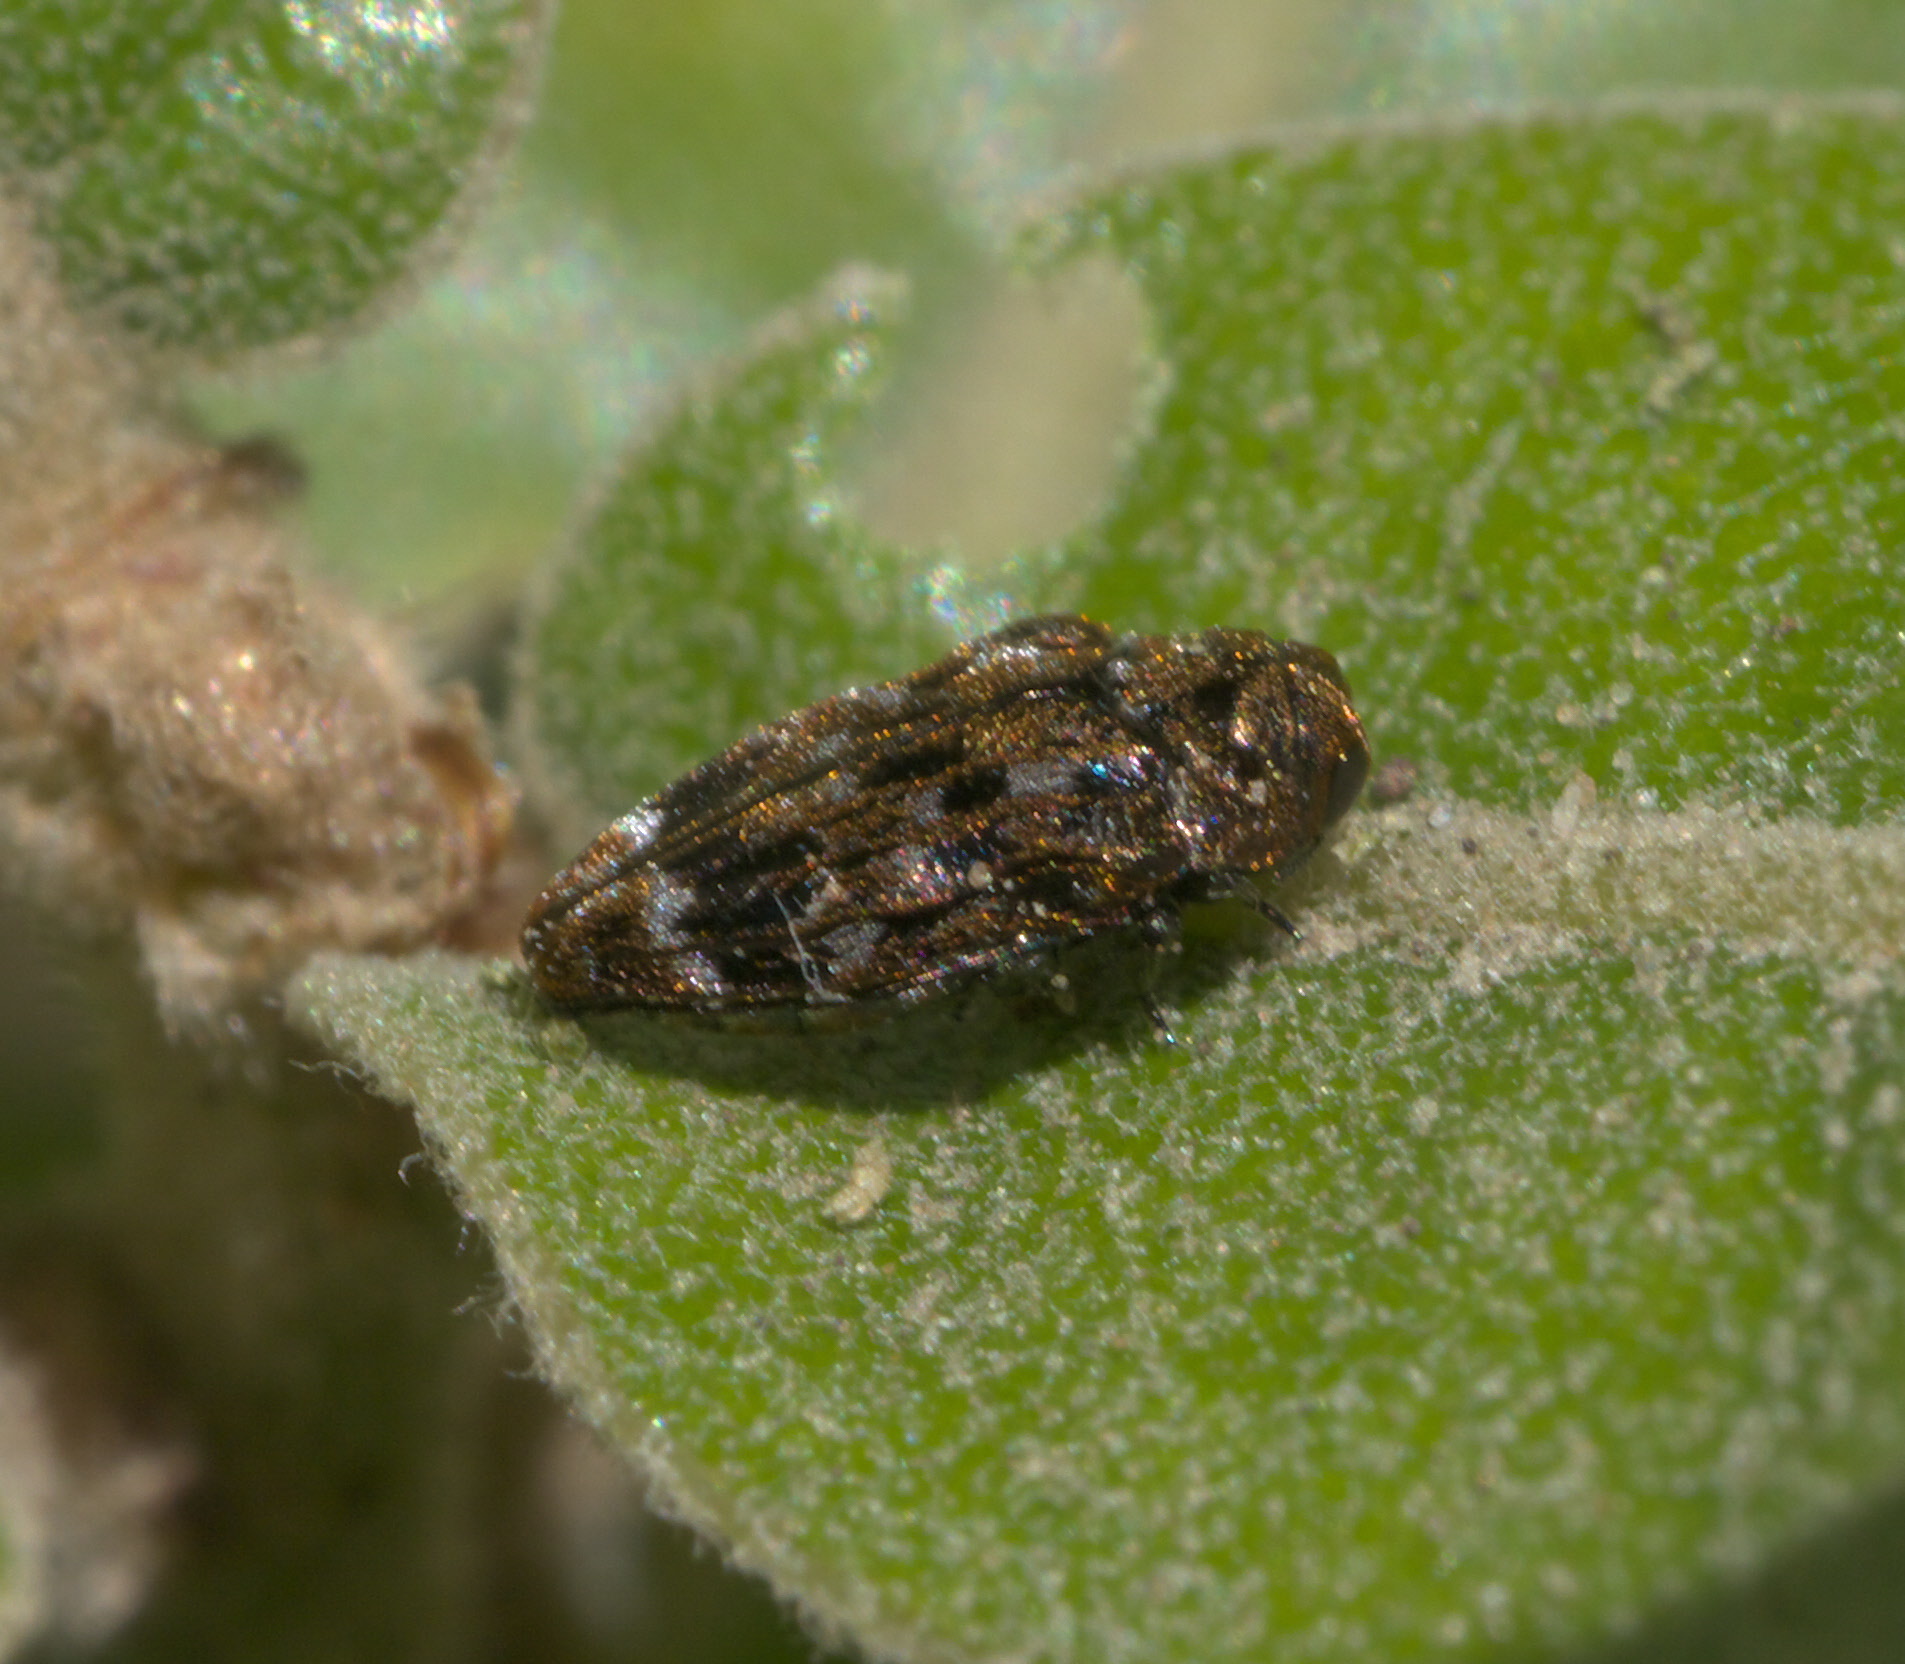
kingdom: Animalia
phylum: Arthropoda
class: Insecta
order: Coleoptera
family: Buprestidae
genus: Brachys
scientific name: Brachys ovatus
